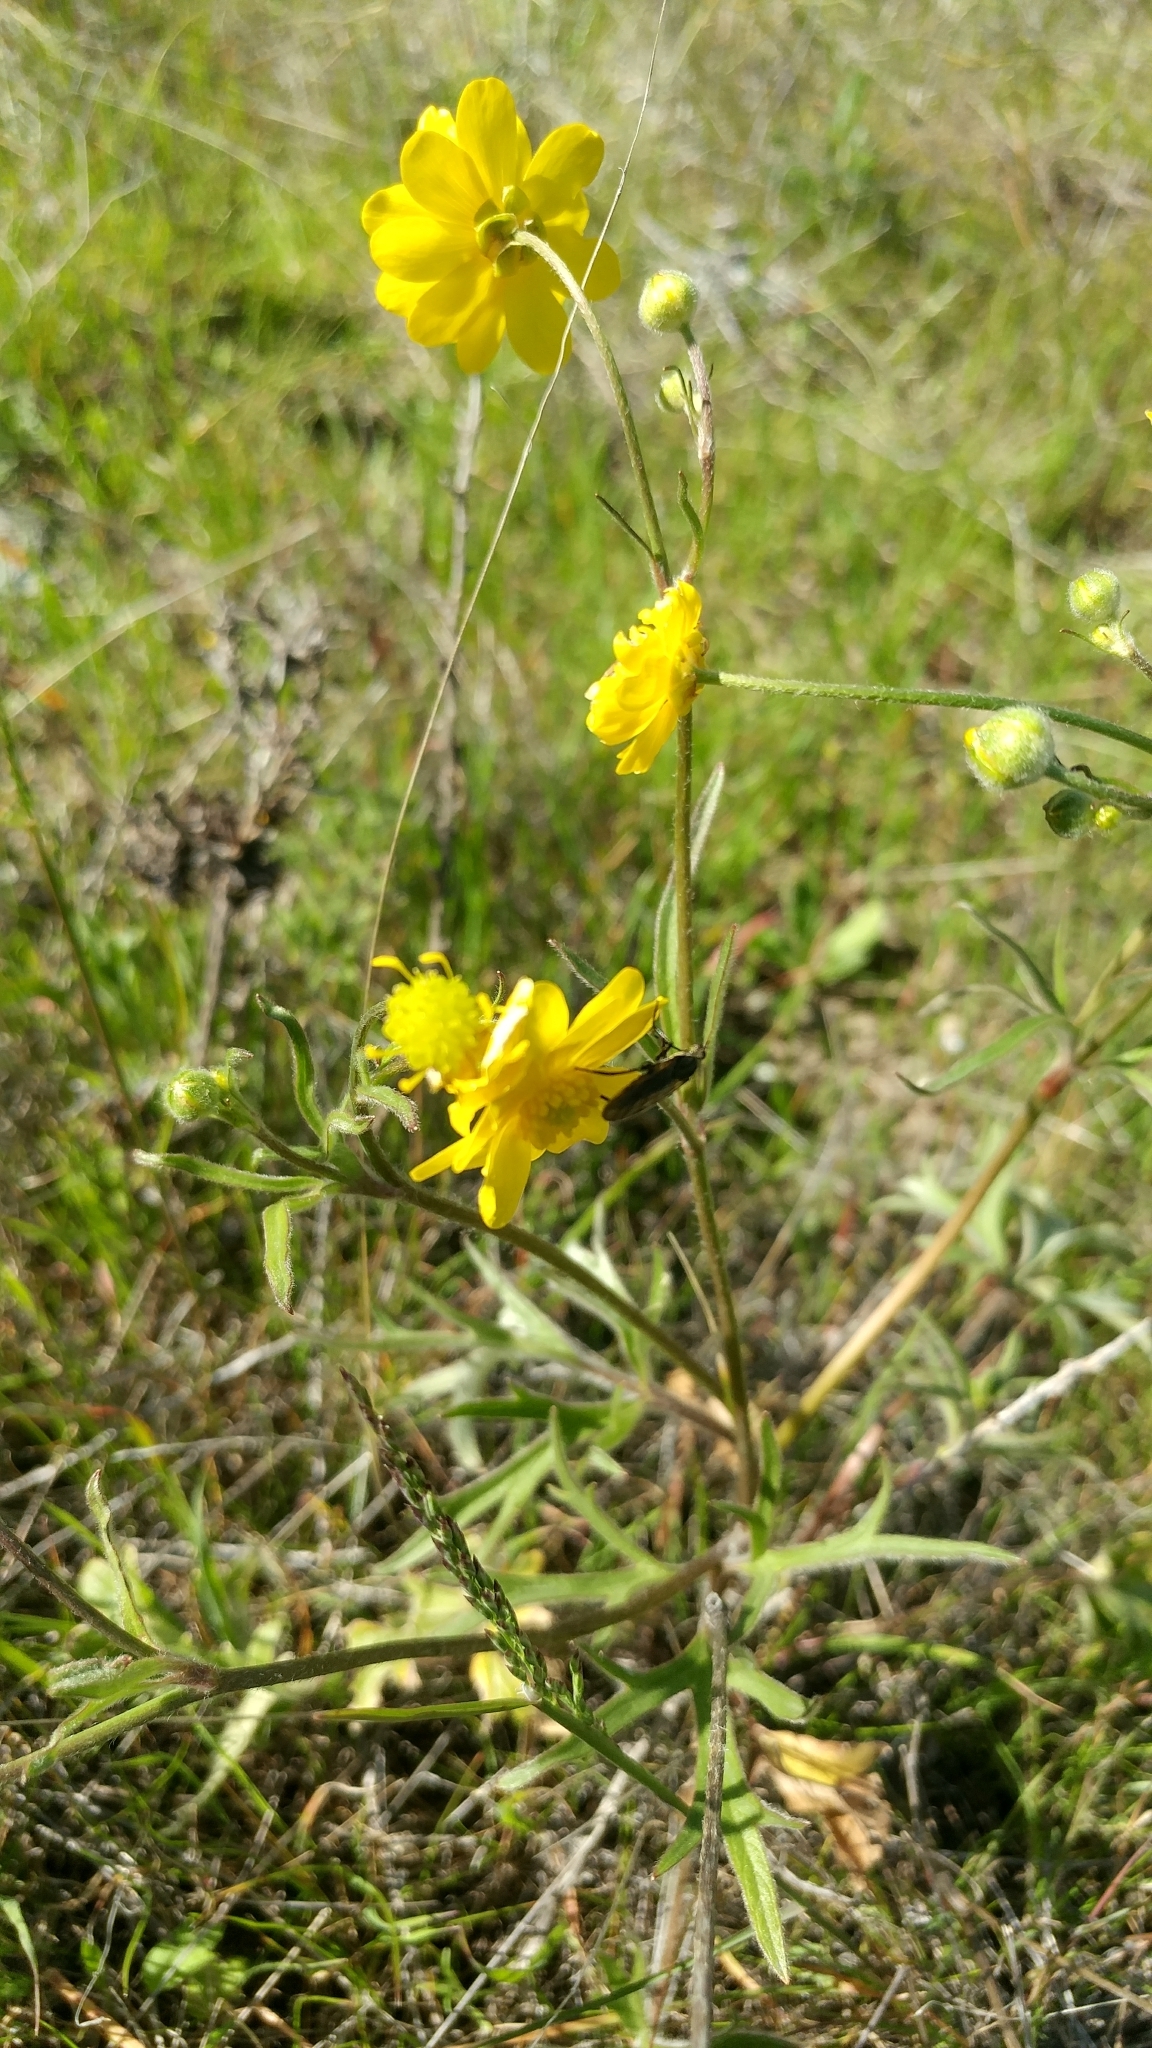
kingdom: Plantae
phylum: Tracheophyta
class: Magnoliopsida
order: Ranunculales
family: Ranunculaceae
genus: Ranunculus
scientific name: Ranunculus californicus
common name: California buttercup
